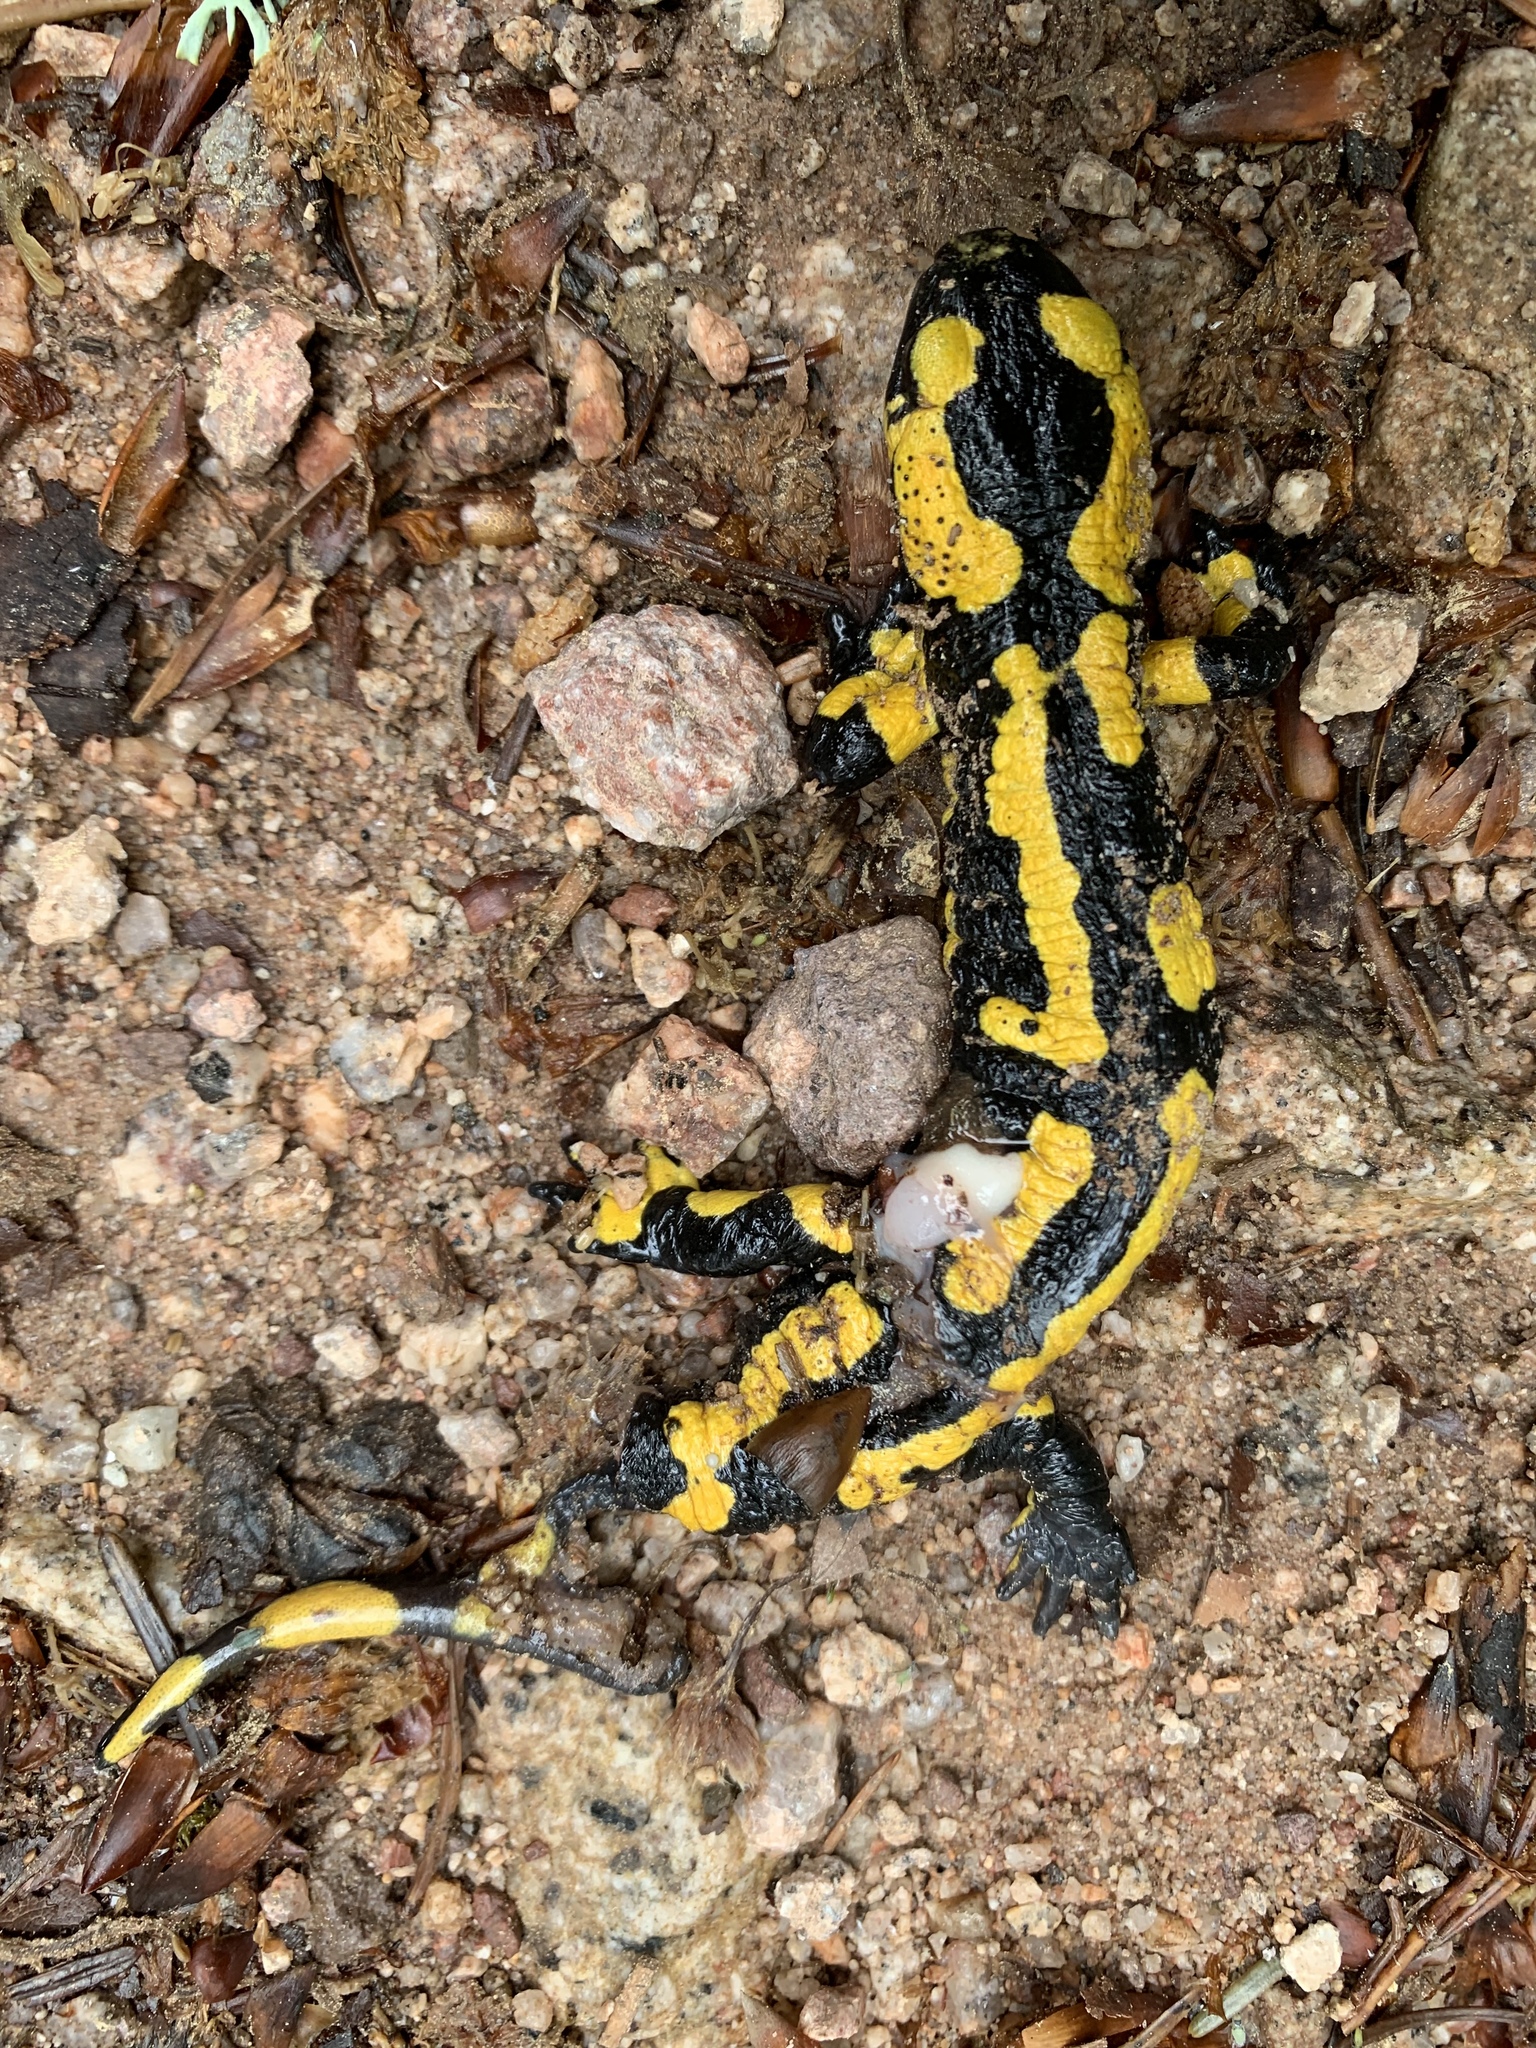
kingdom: Animalia
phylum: Chordata
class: Amphibia
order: Caudata
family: Salamandridae
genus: Salamandra
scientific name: Salamandra salamandra
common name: Fire salamander
